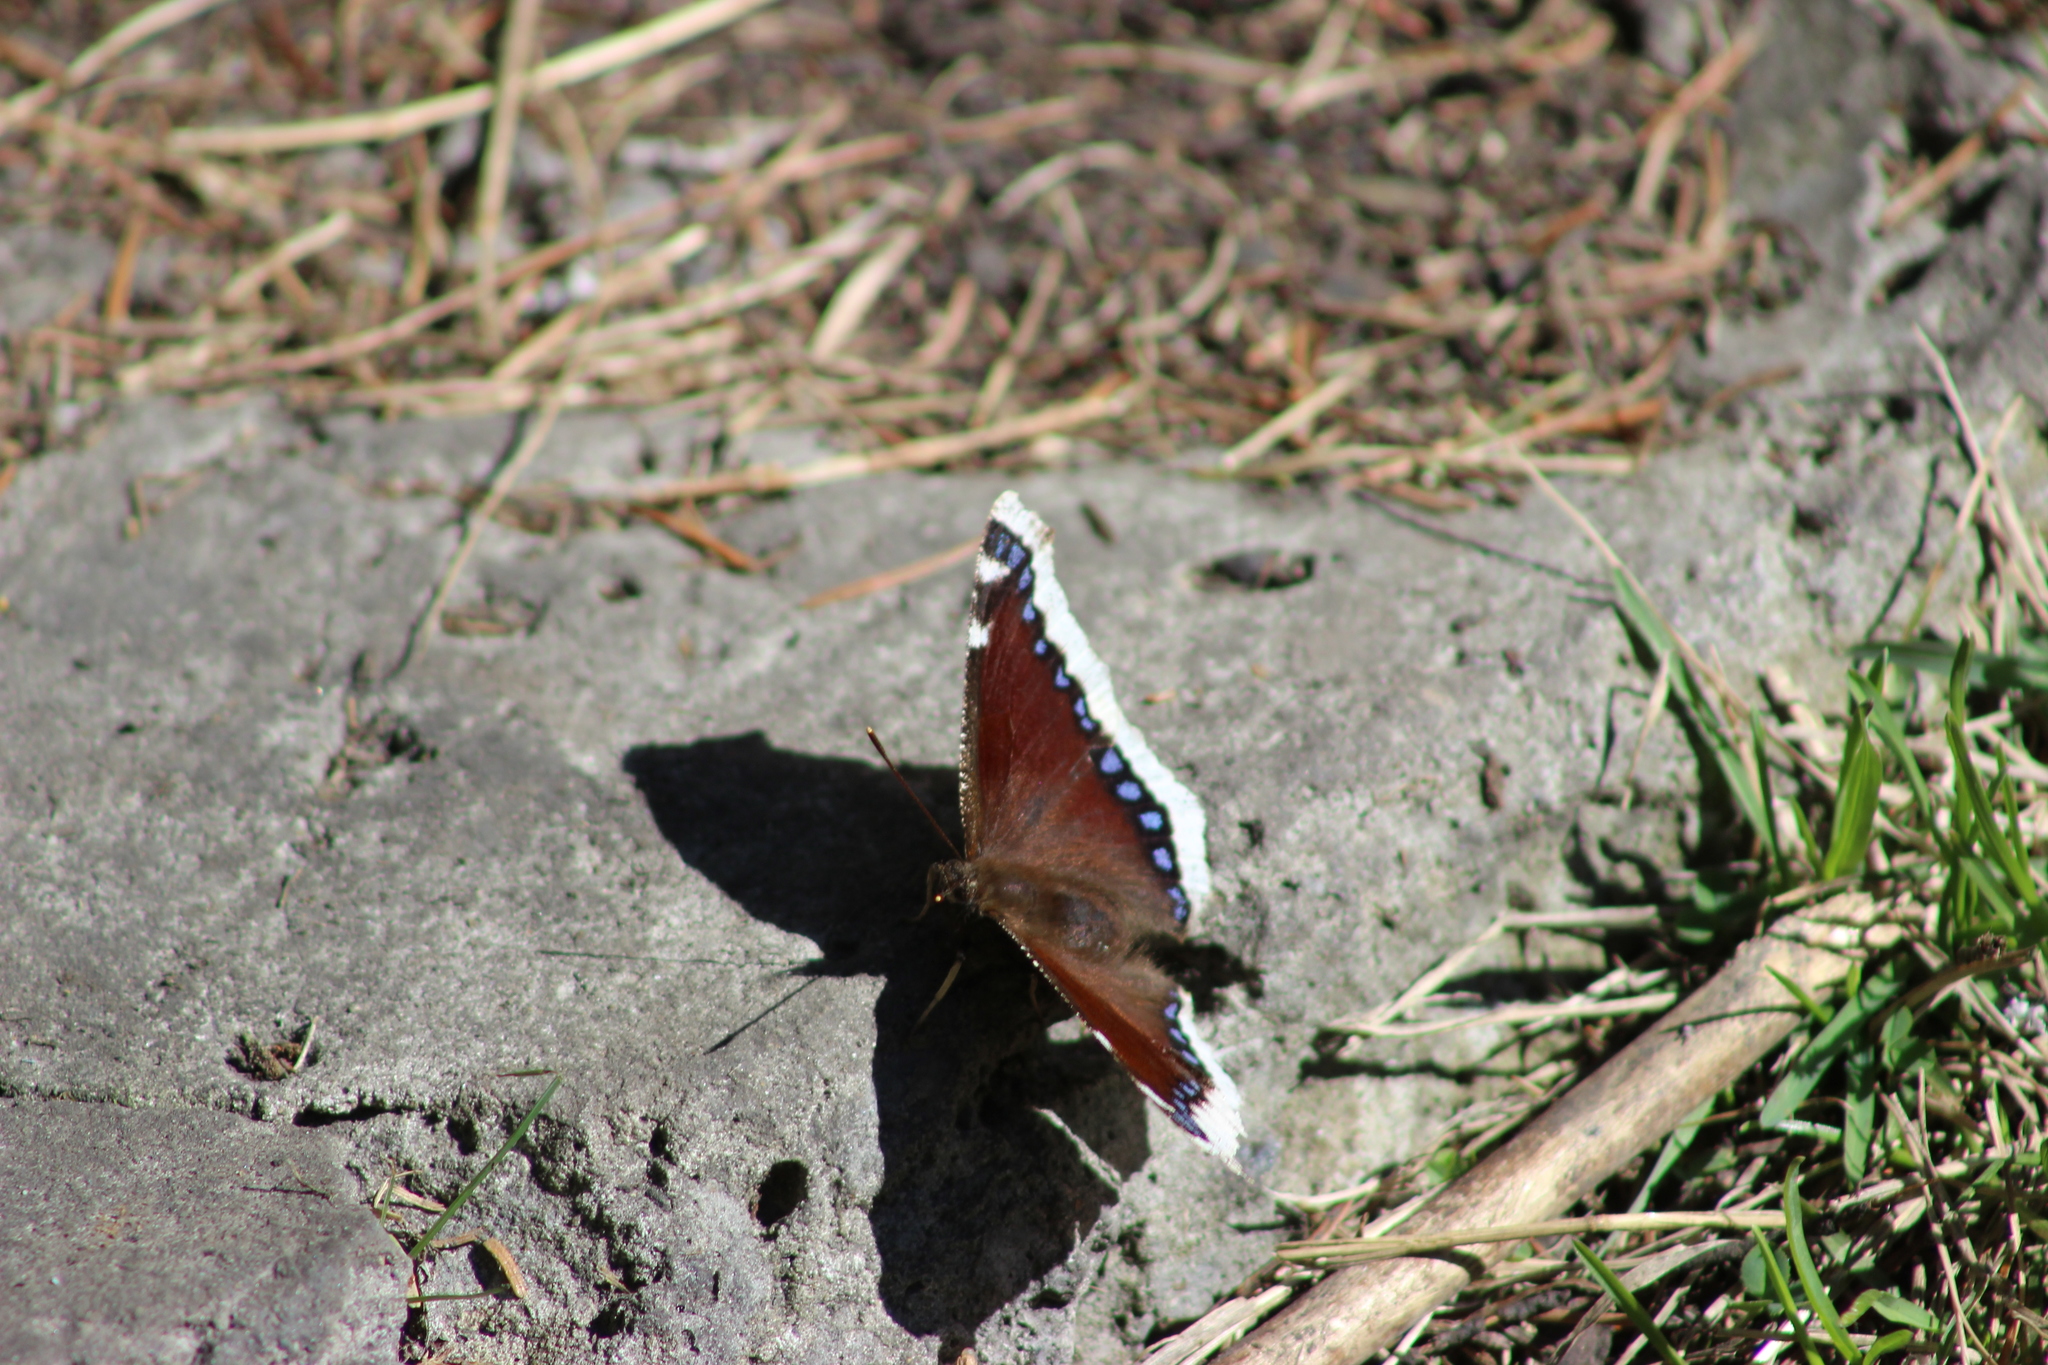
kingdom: Animalia
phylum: Arthropoda
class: Insecta
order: Lepidoptera
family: Nymphalidae
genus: Nymphalis
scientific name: Nymphalis antiopa
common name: Camberwell beauty
